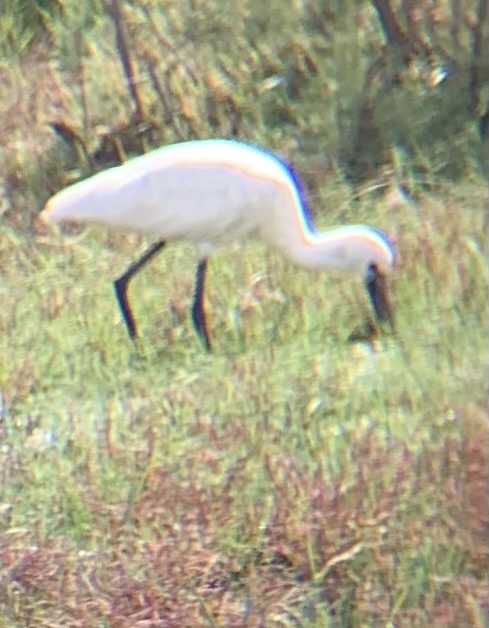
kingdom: Animalia
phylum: Chordata
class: Aves
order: Pelecaniformes
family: Threskiornithidae
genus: Platalea
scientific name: Platalea leucorodia
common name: Eurasian spoonbill
